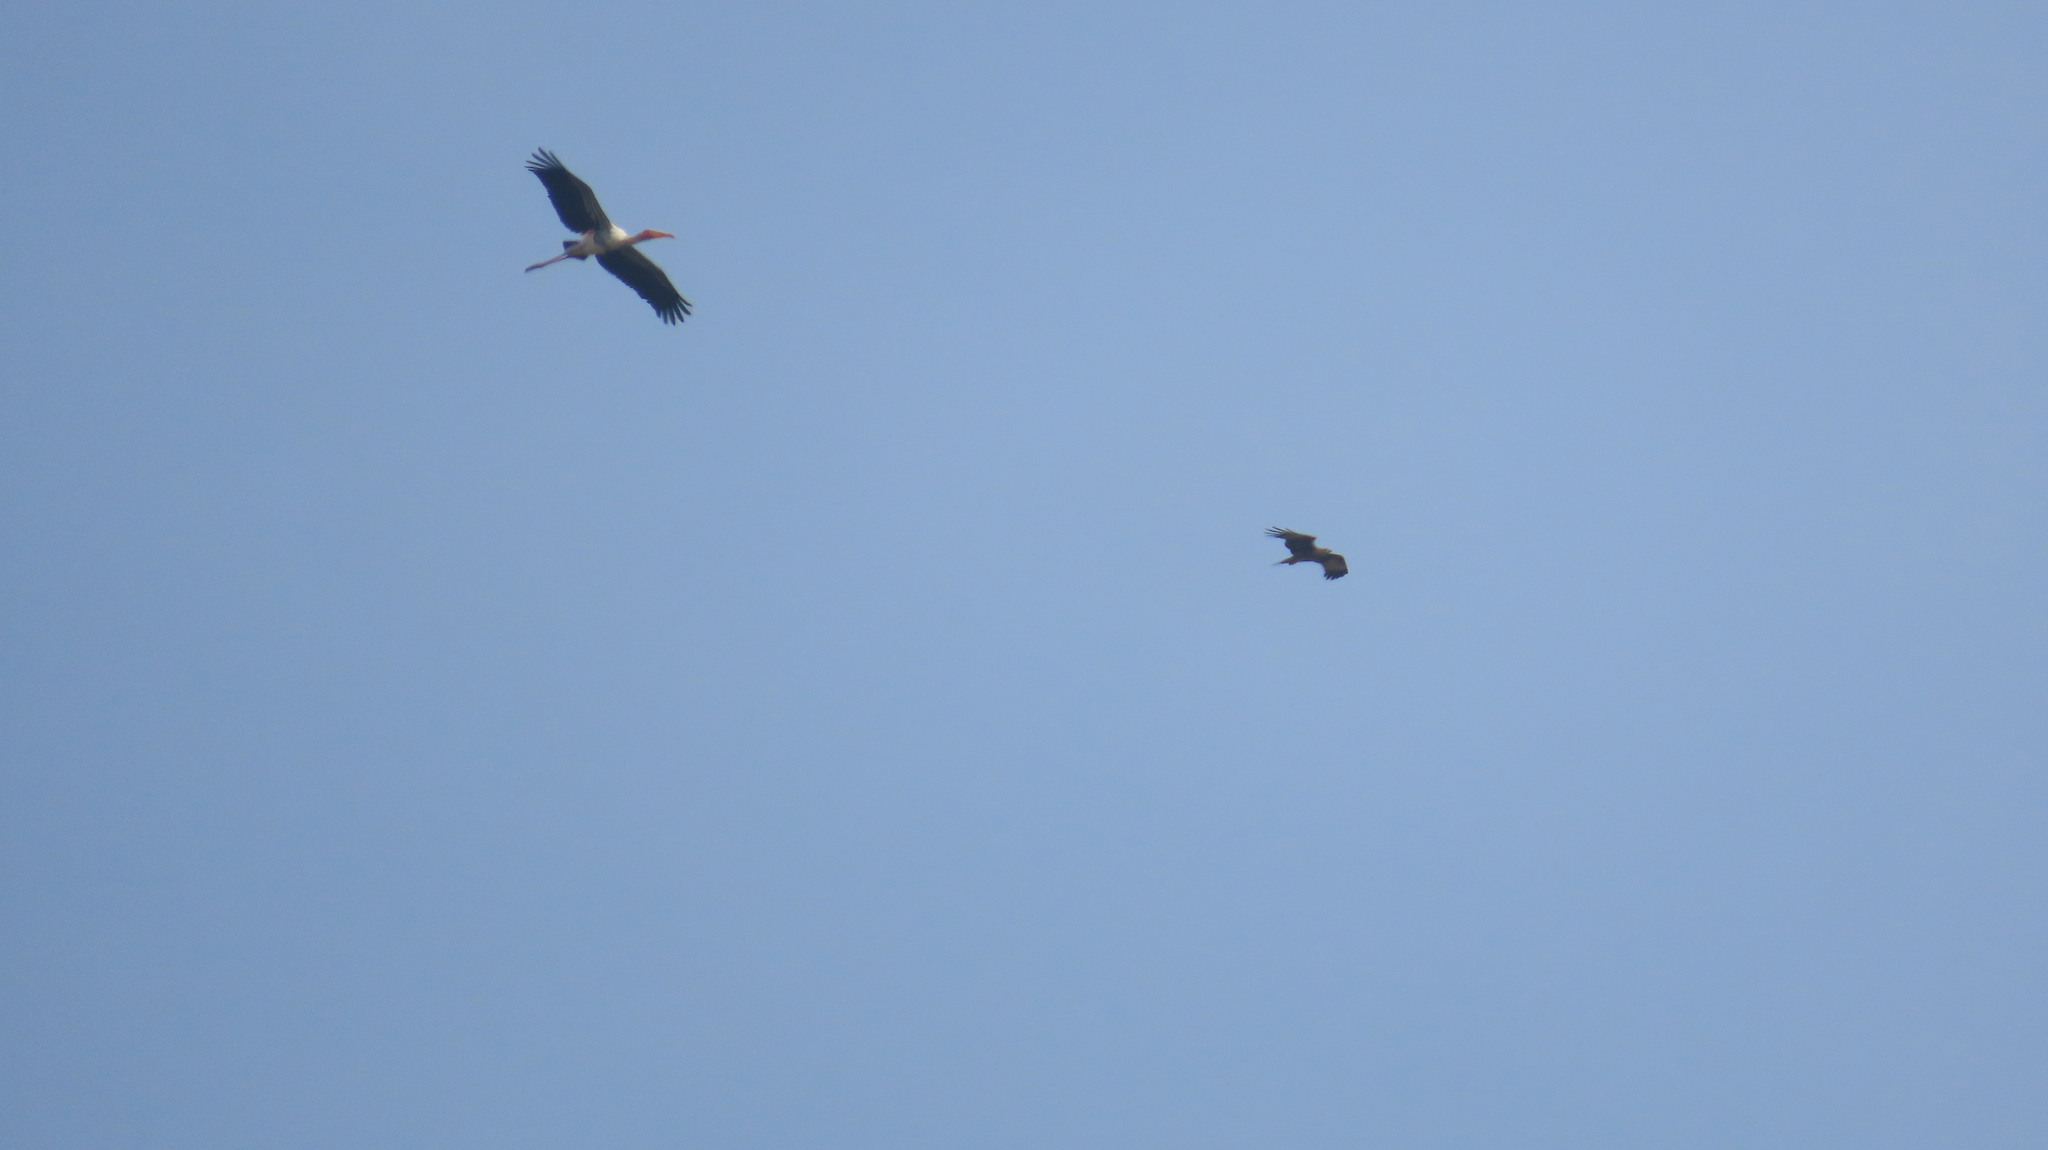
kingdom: Animalia
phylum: Chordata
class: Aves
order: Accipitriformes
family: Accipitridae
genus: Haliastur
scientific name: Haliastur indus
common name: Brahminy kite
